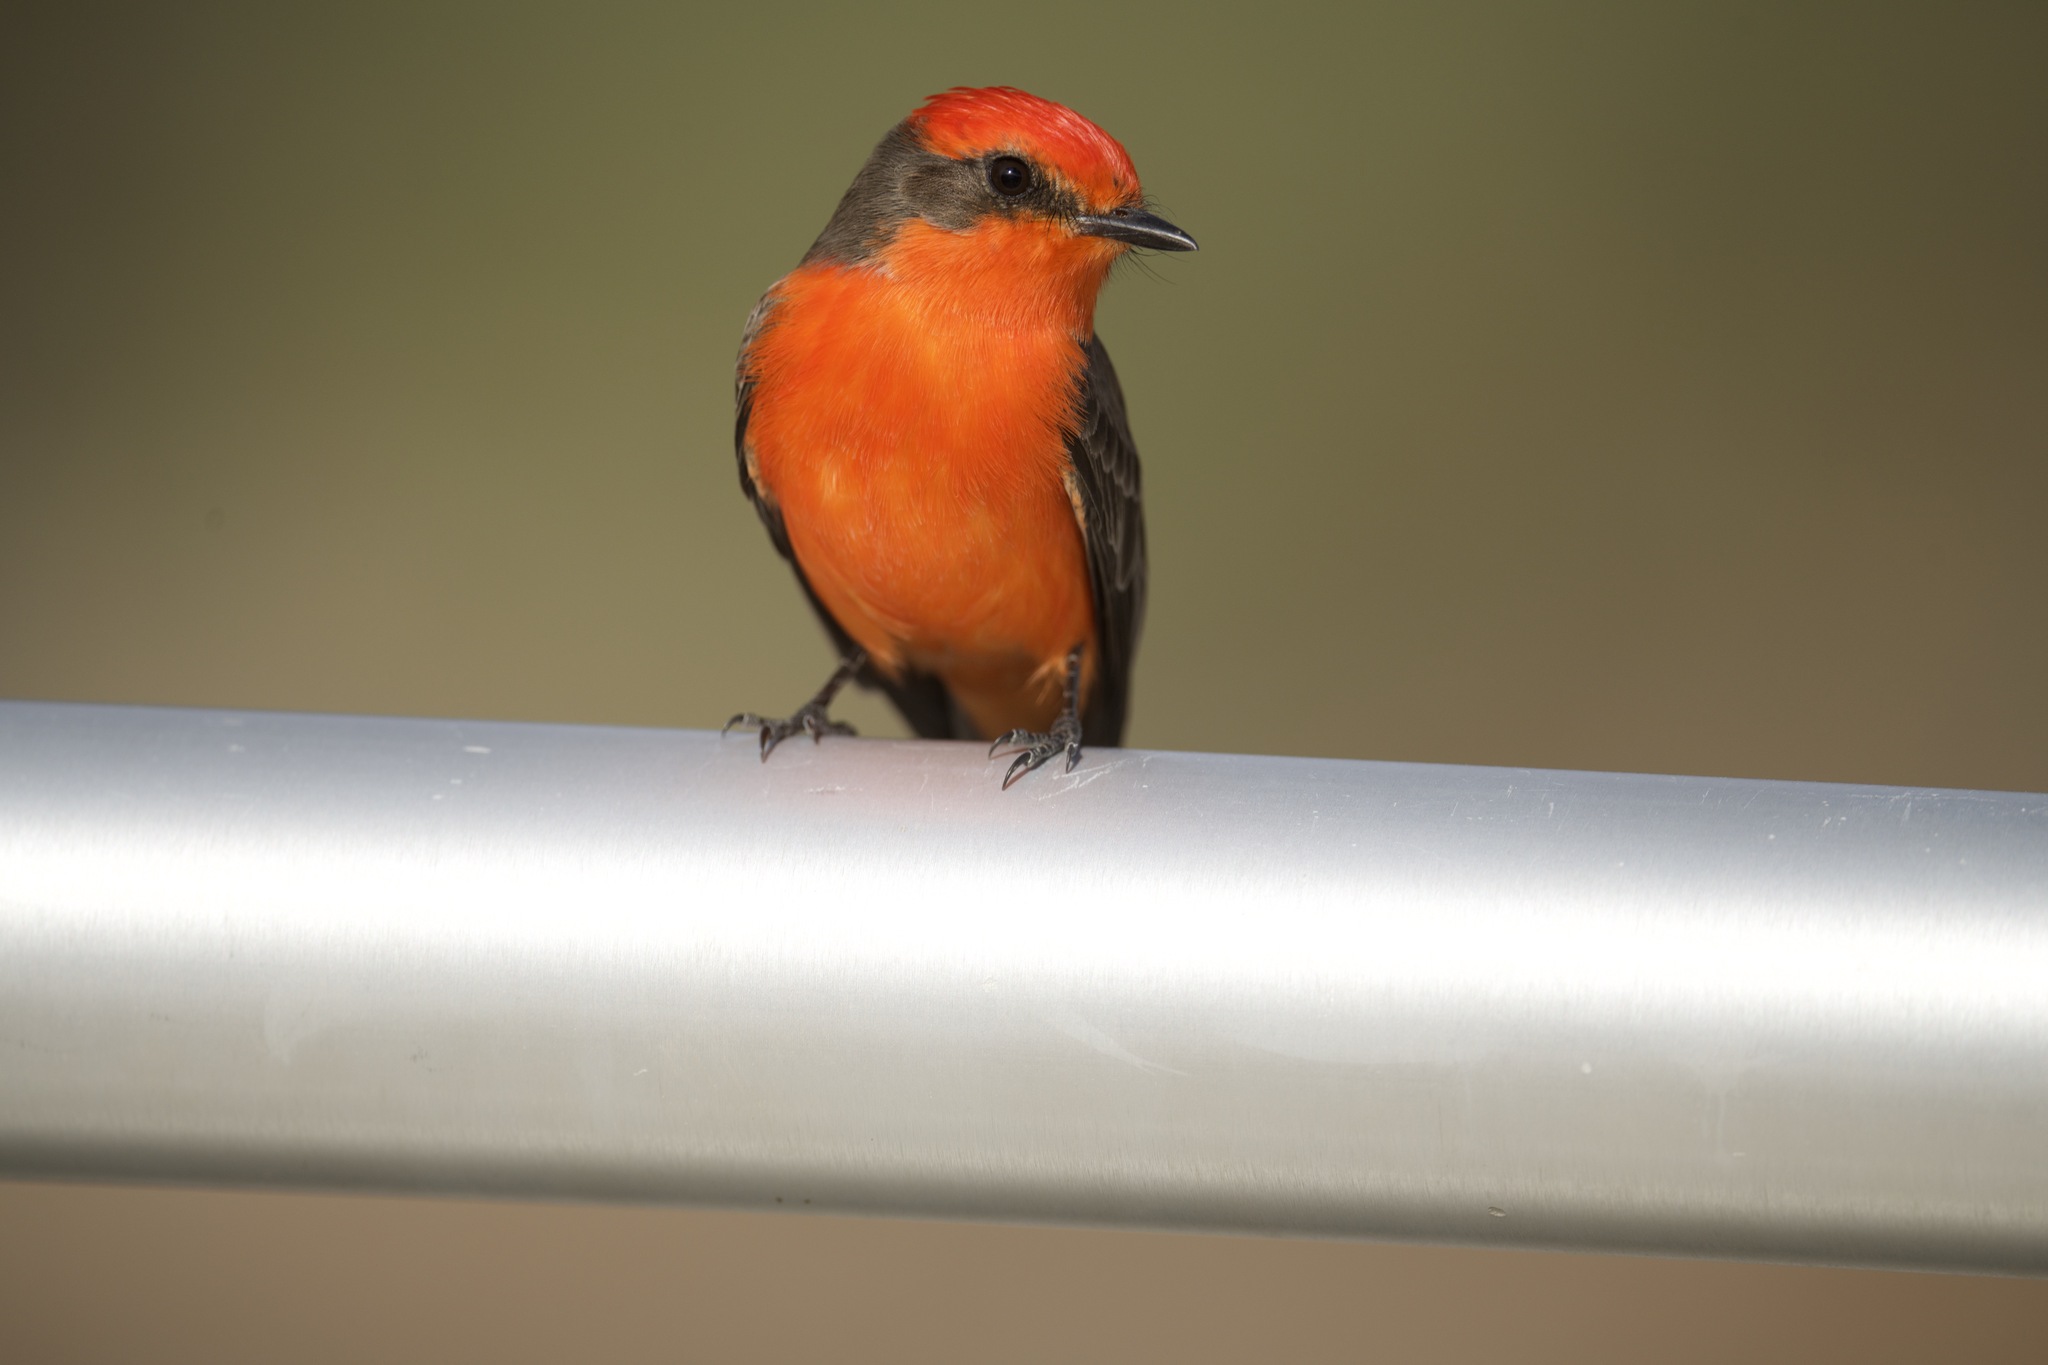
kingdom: Animalia
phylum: Chordata
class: Aves
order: Passeriformes
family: Tyrannidae
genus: Pyrocephalus
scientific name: Pyrocephalus rubinus
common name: Vermilion flycatcher
